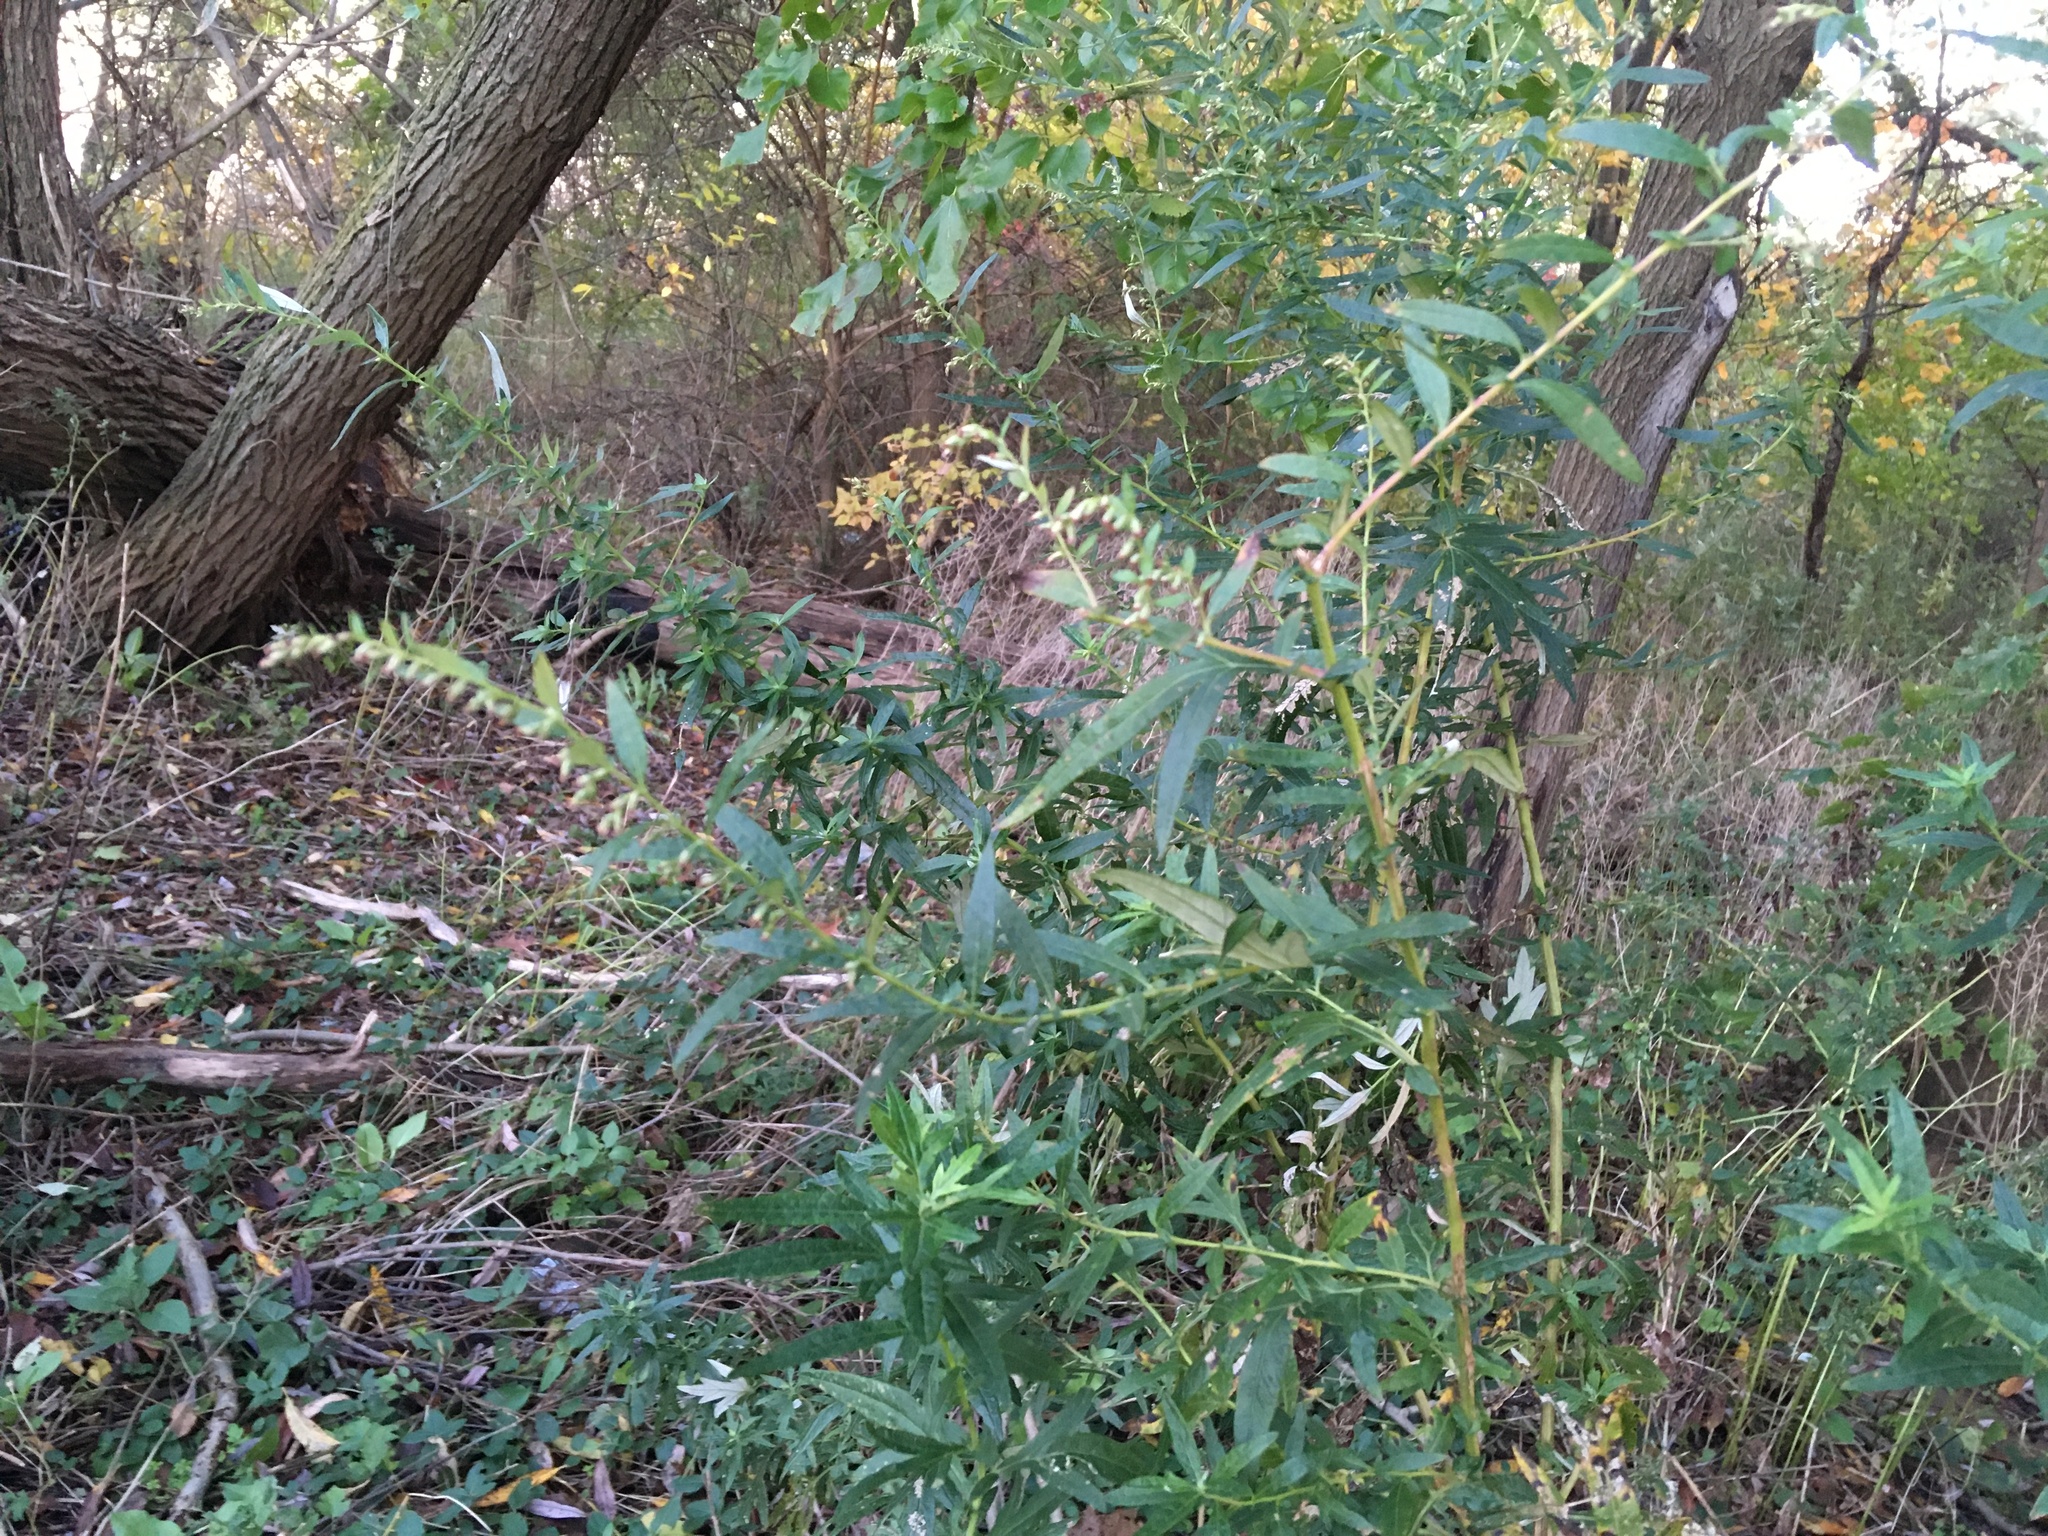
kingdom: Plantae
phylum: Tracheophyta
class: Magnoliopsida
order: Asterales
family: Asteraceae
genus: Artemisia
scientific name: Artemisia vulgaris
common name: Mugwort
